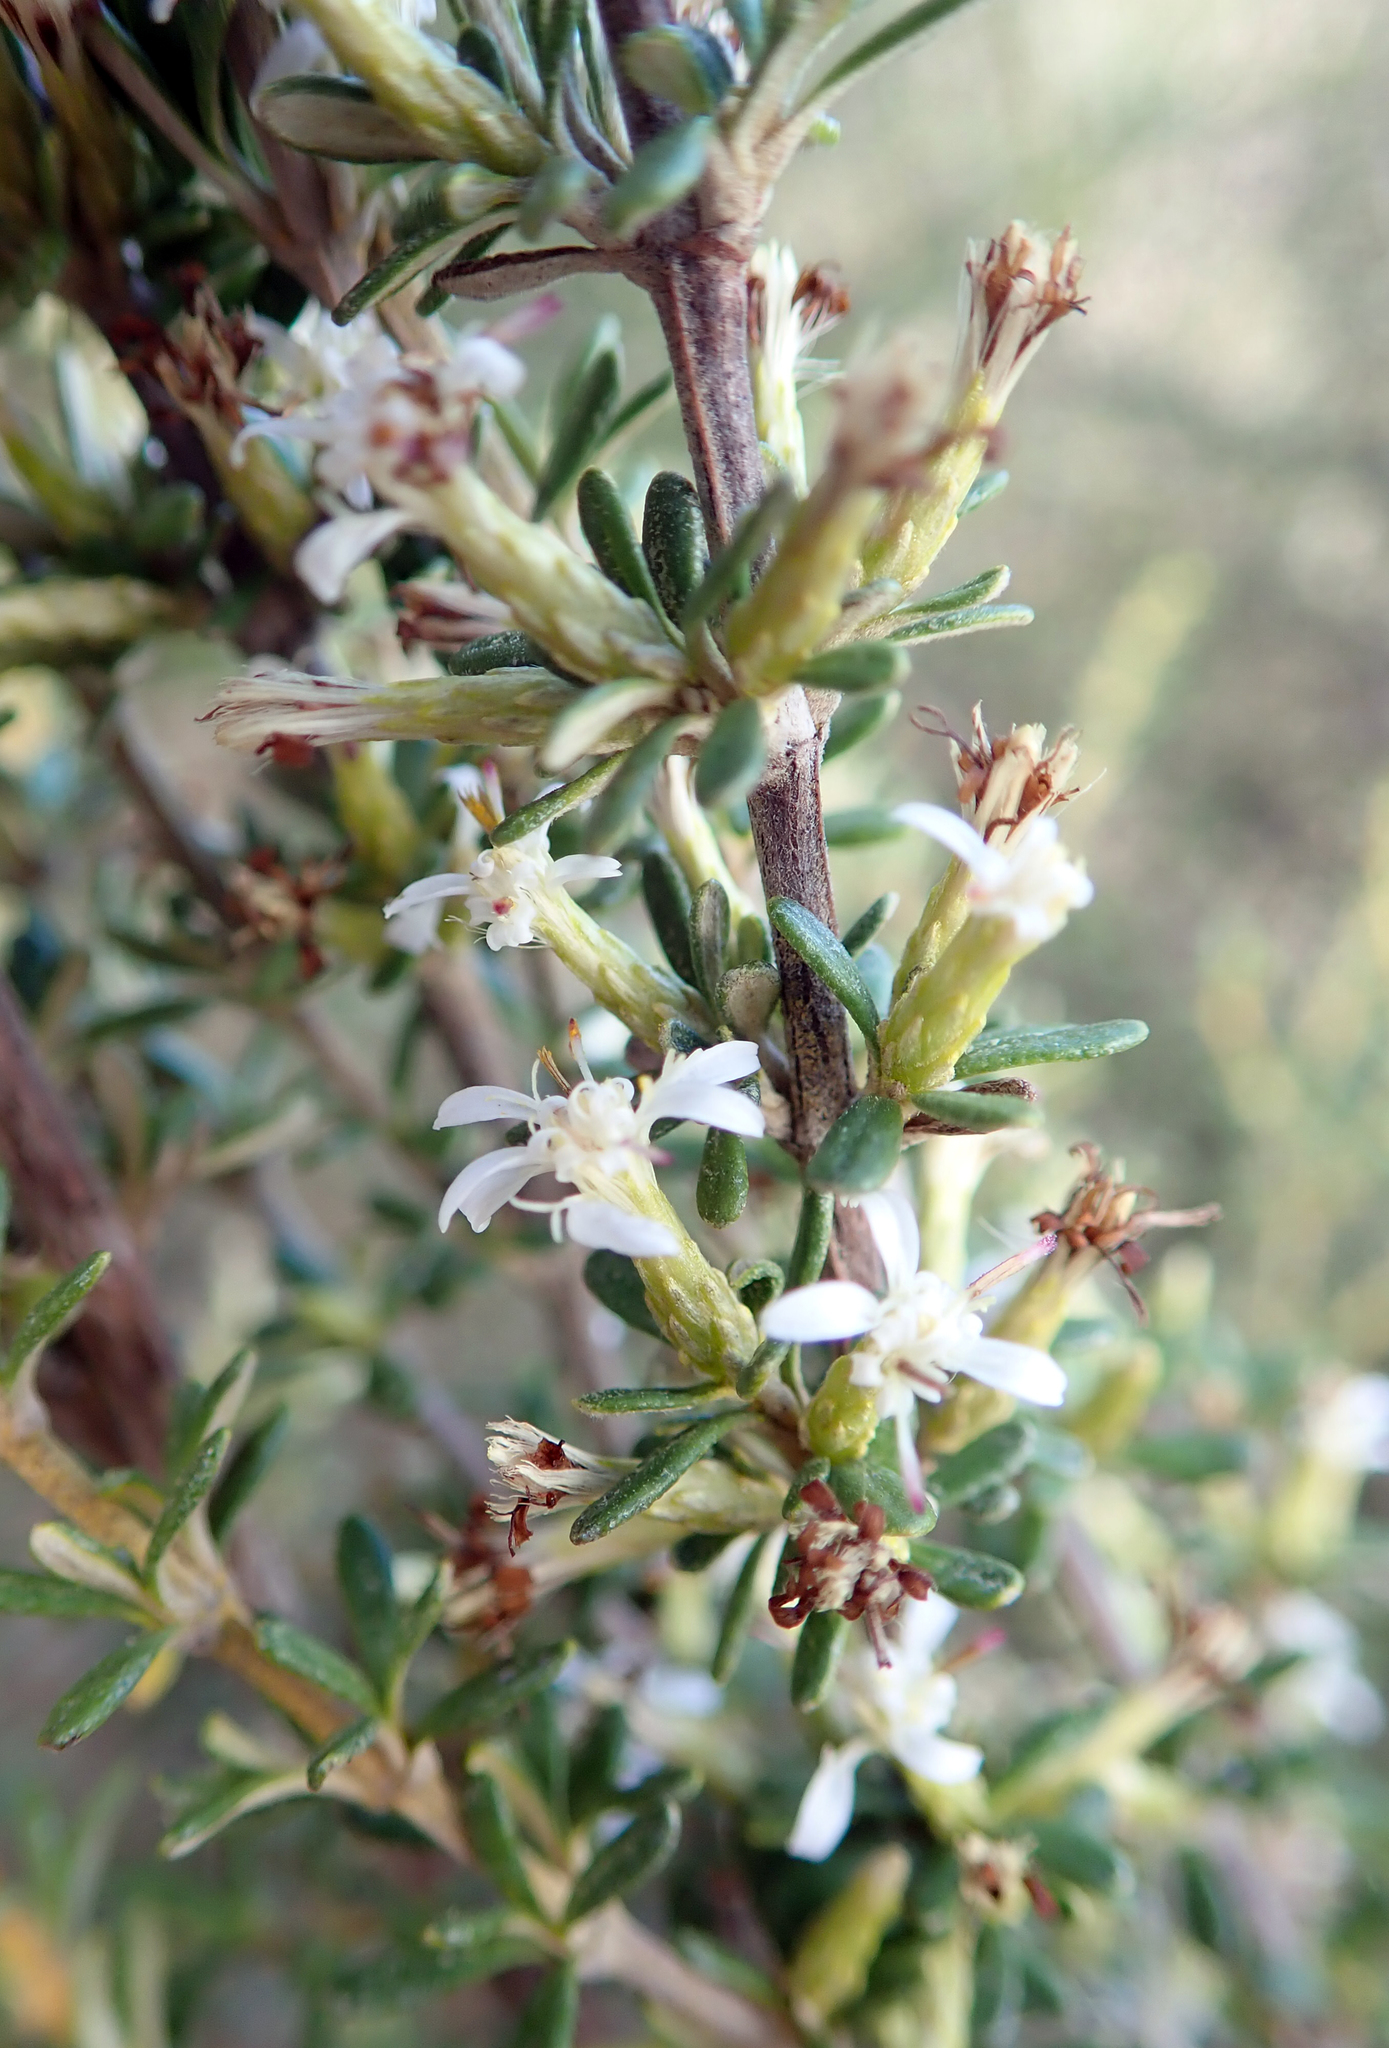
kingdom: Plantae
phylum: Tracheophyta
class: Magnoliopsida
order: Asterales
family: Asteraceae
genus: Olearia
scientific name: Olearia solandri
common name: Coastal daisybush
